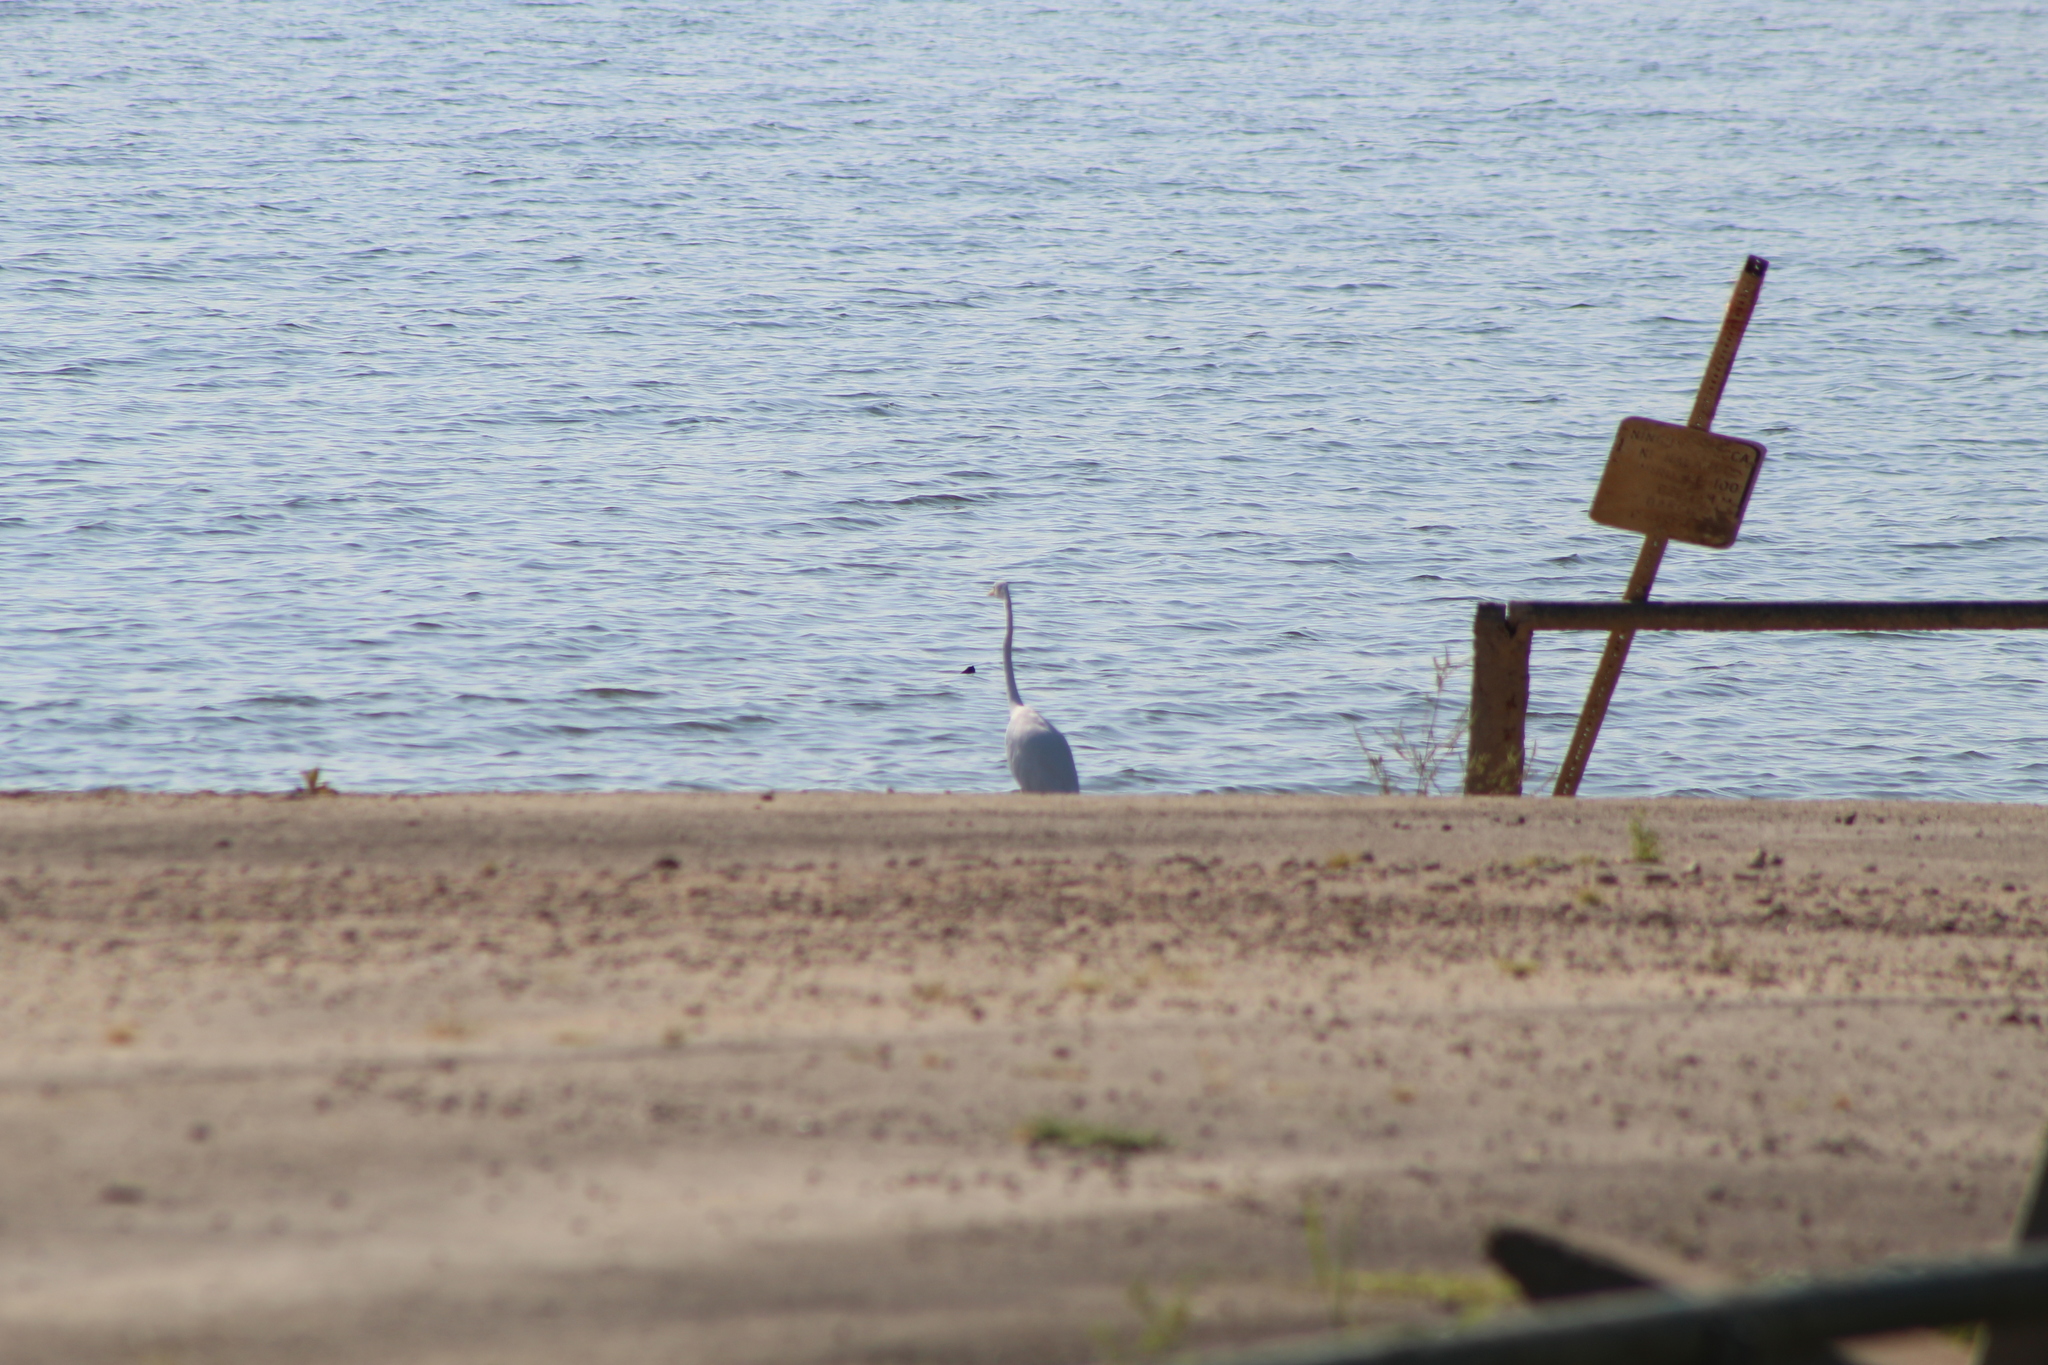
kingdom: Animalia
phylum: Chordata
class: Aves
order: Pelecaniformes
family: Ardeidae
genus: Ardea
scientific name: Ardea alba
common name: Great egret
